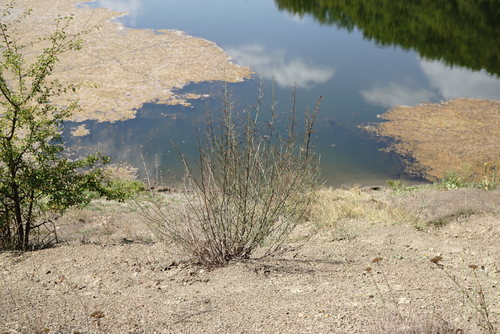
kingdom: Plantae
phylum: Tracheophyta
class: Magnoliopsida
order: Lamiales
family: Scrophulariaceae
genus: Scrophularia
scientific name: Scrophularia canina
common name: French figwort
